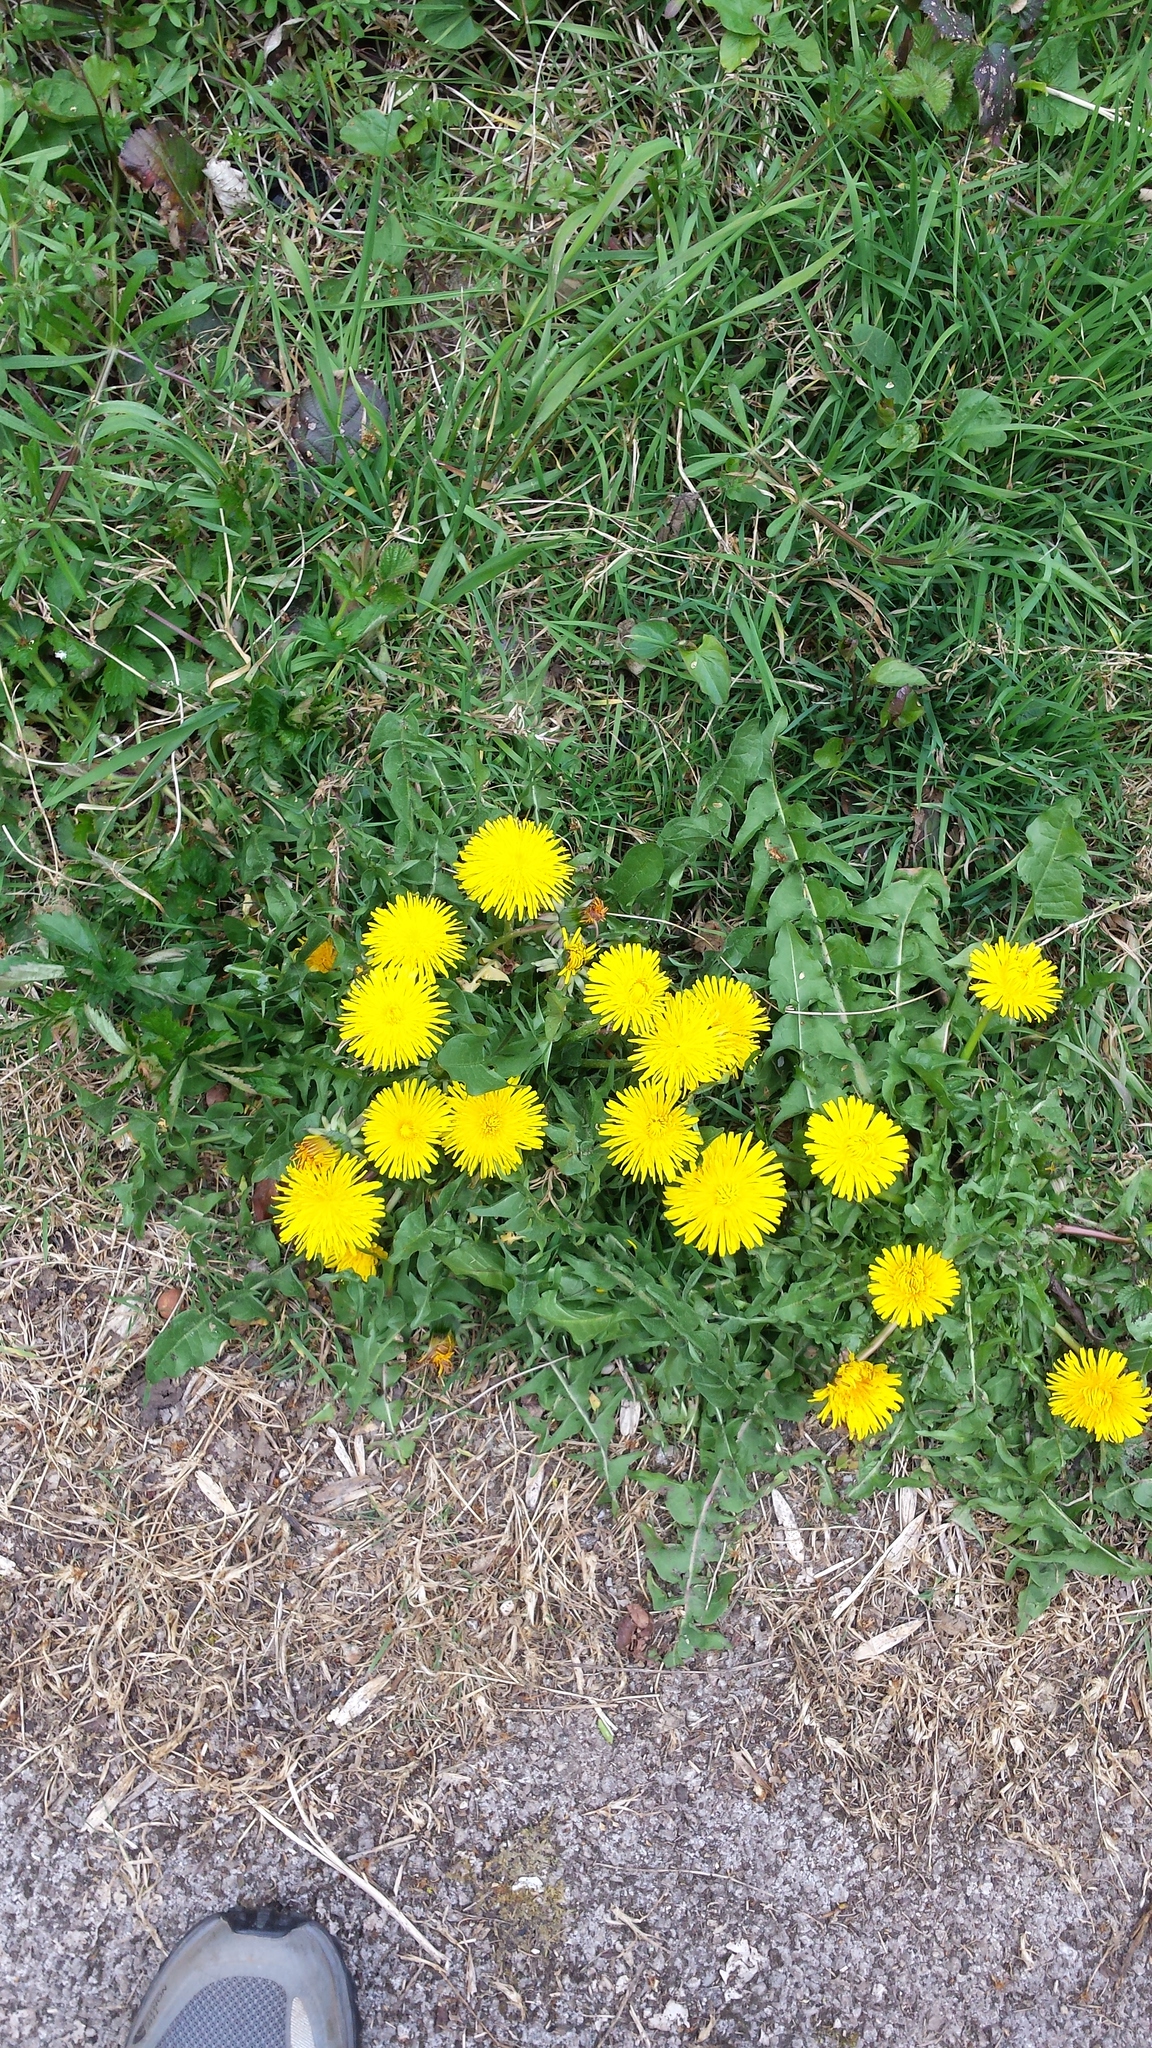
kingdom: Plantae
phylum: Tracheophyta
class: Magnoliopsida
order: Asterales
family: Asteraceae
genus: Taraxacum
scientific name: Taraxacum officinale
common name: Common dandelion
